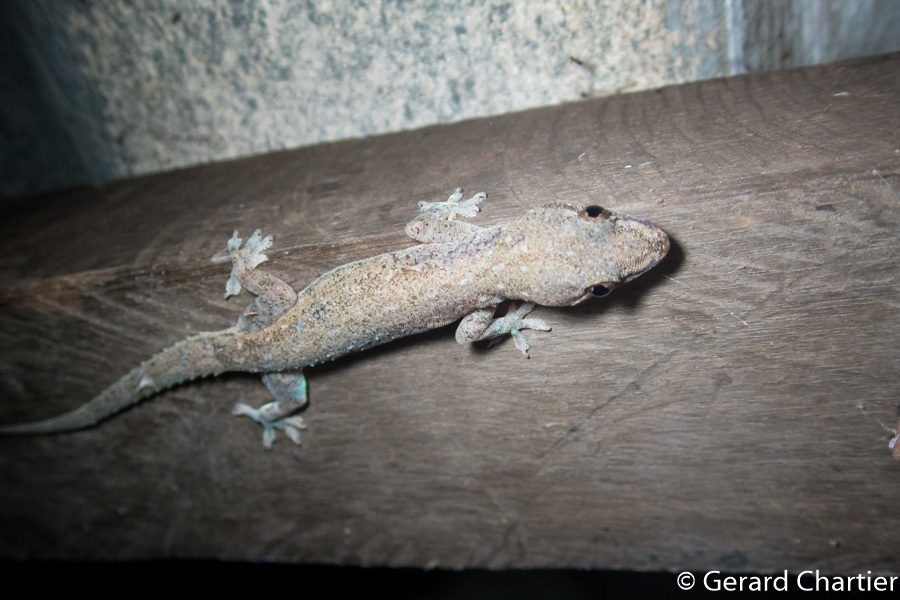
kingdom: Animalia
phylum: Chordata
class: Squamata
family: Gekkonidae
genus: Hemidactylus
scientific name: Hemidactylus frenatus
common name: Common house gecko
